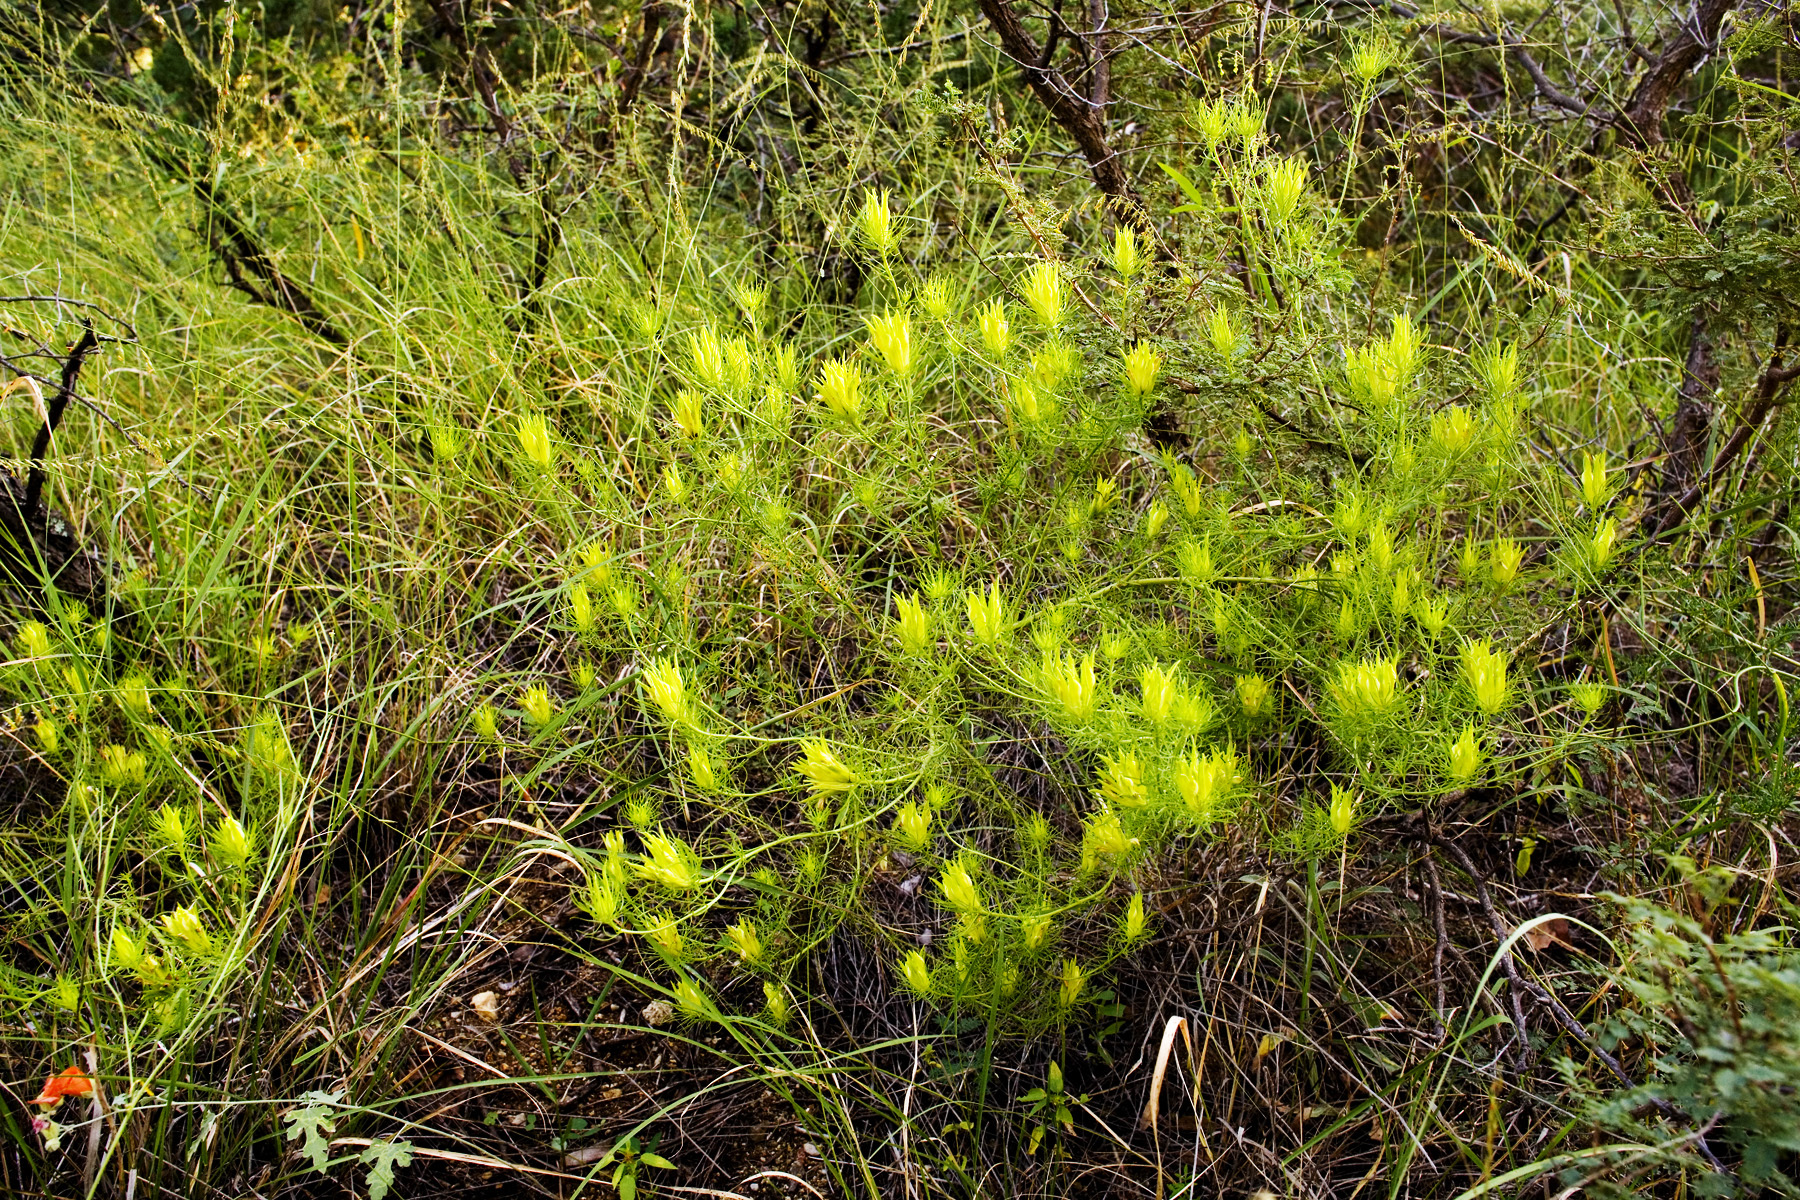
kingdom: Plantae
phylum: Tracheophyta
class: Magnoliopsida
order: Lamiales
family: Orobanchaceae
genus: Cordylanthus
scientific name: Cordylanthus wrightii
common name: Wright's birdsbeak
